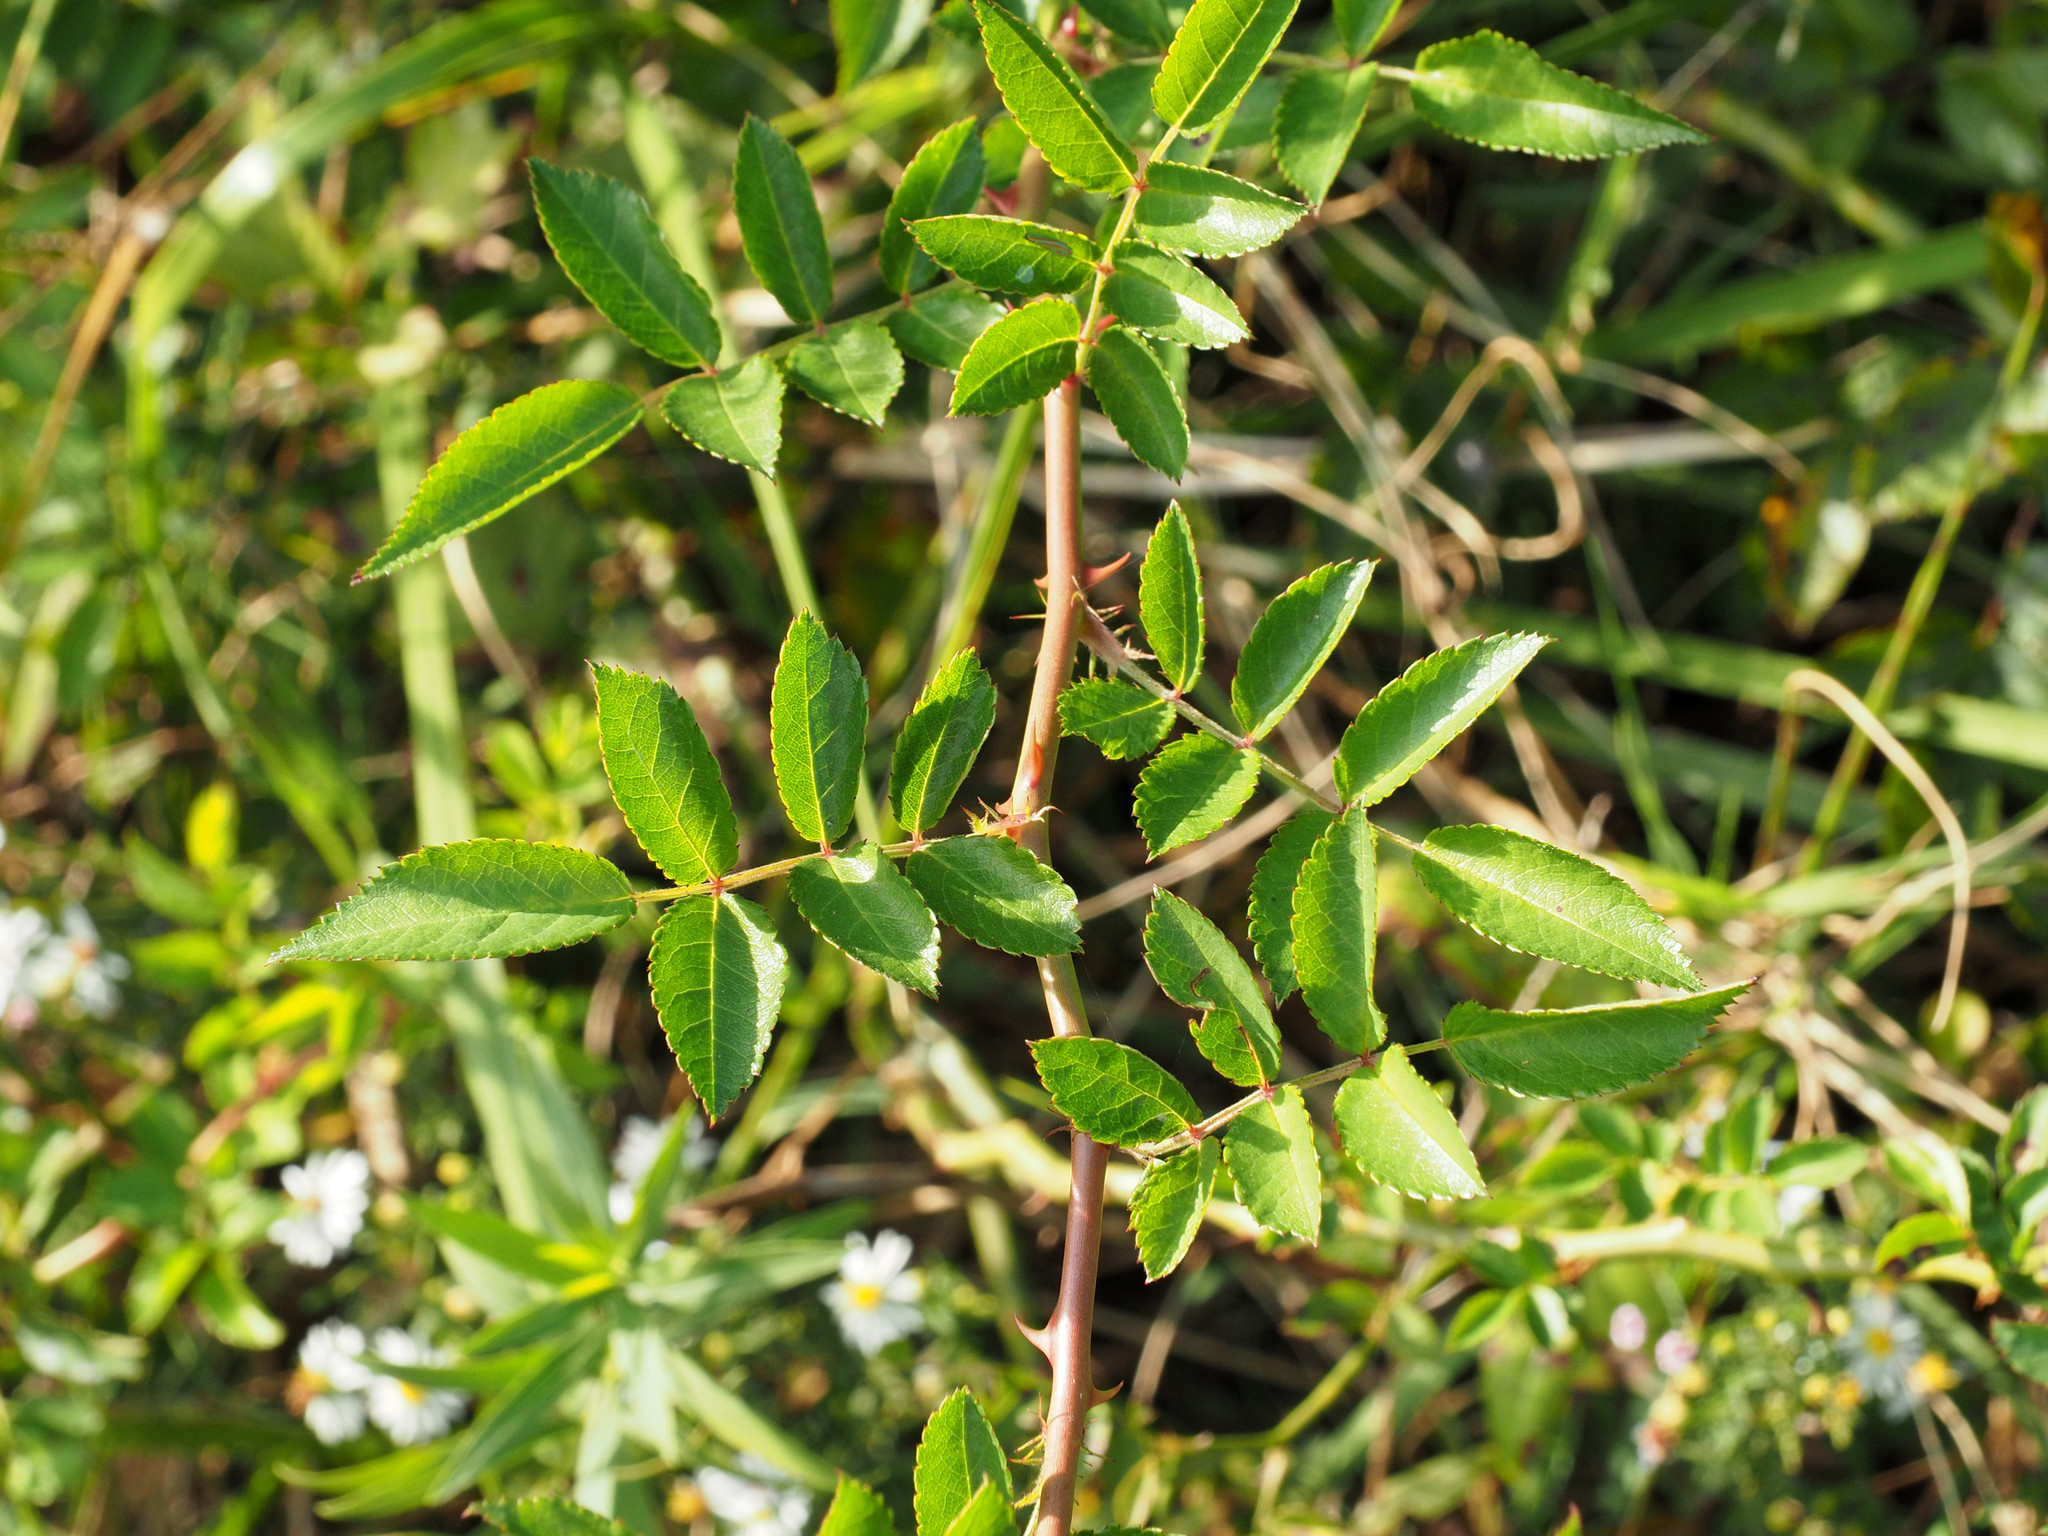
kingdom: Plantae
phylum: Tracheophyta
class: Magnoliopsida
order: Rosales
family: Rosaceae
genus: Rosa
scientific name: Rosa multiflora
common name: Multiflora rose
